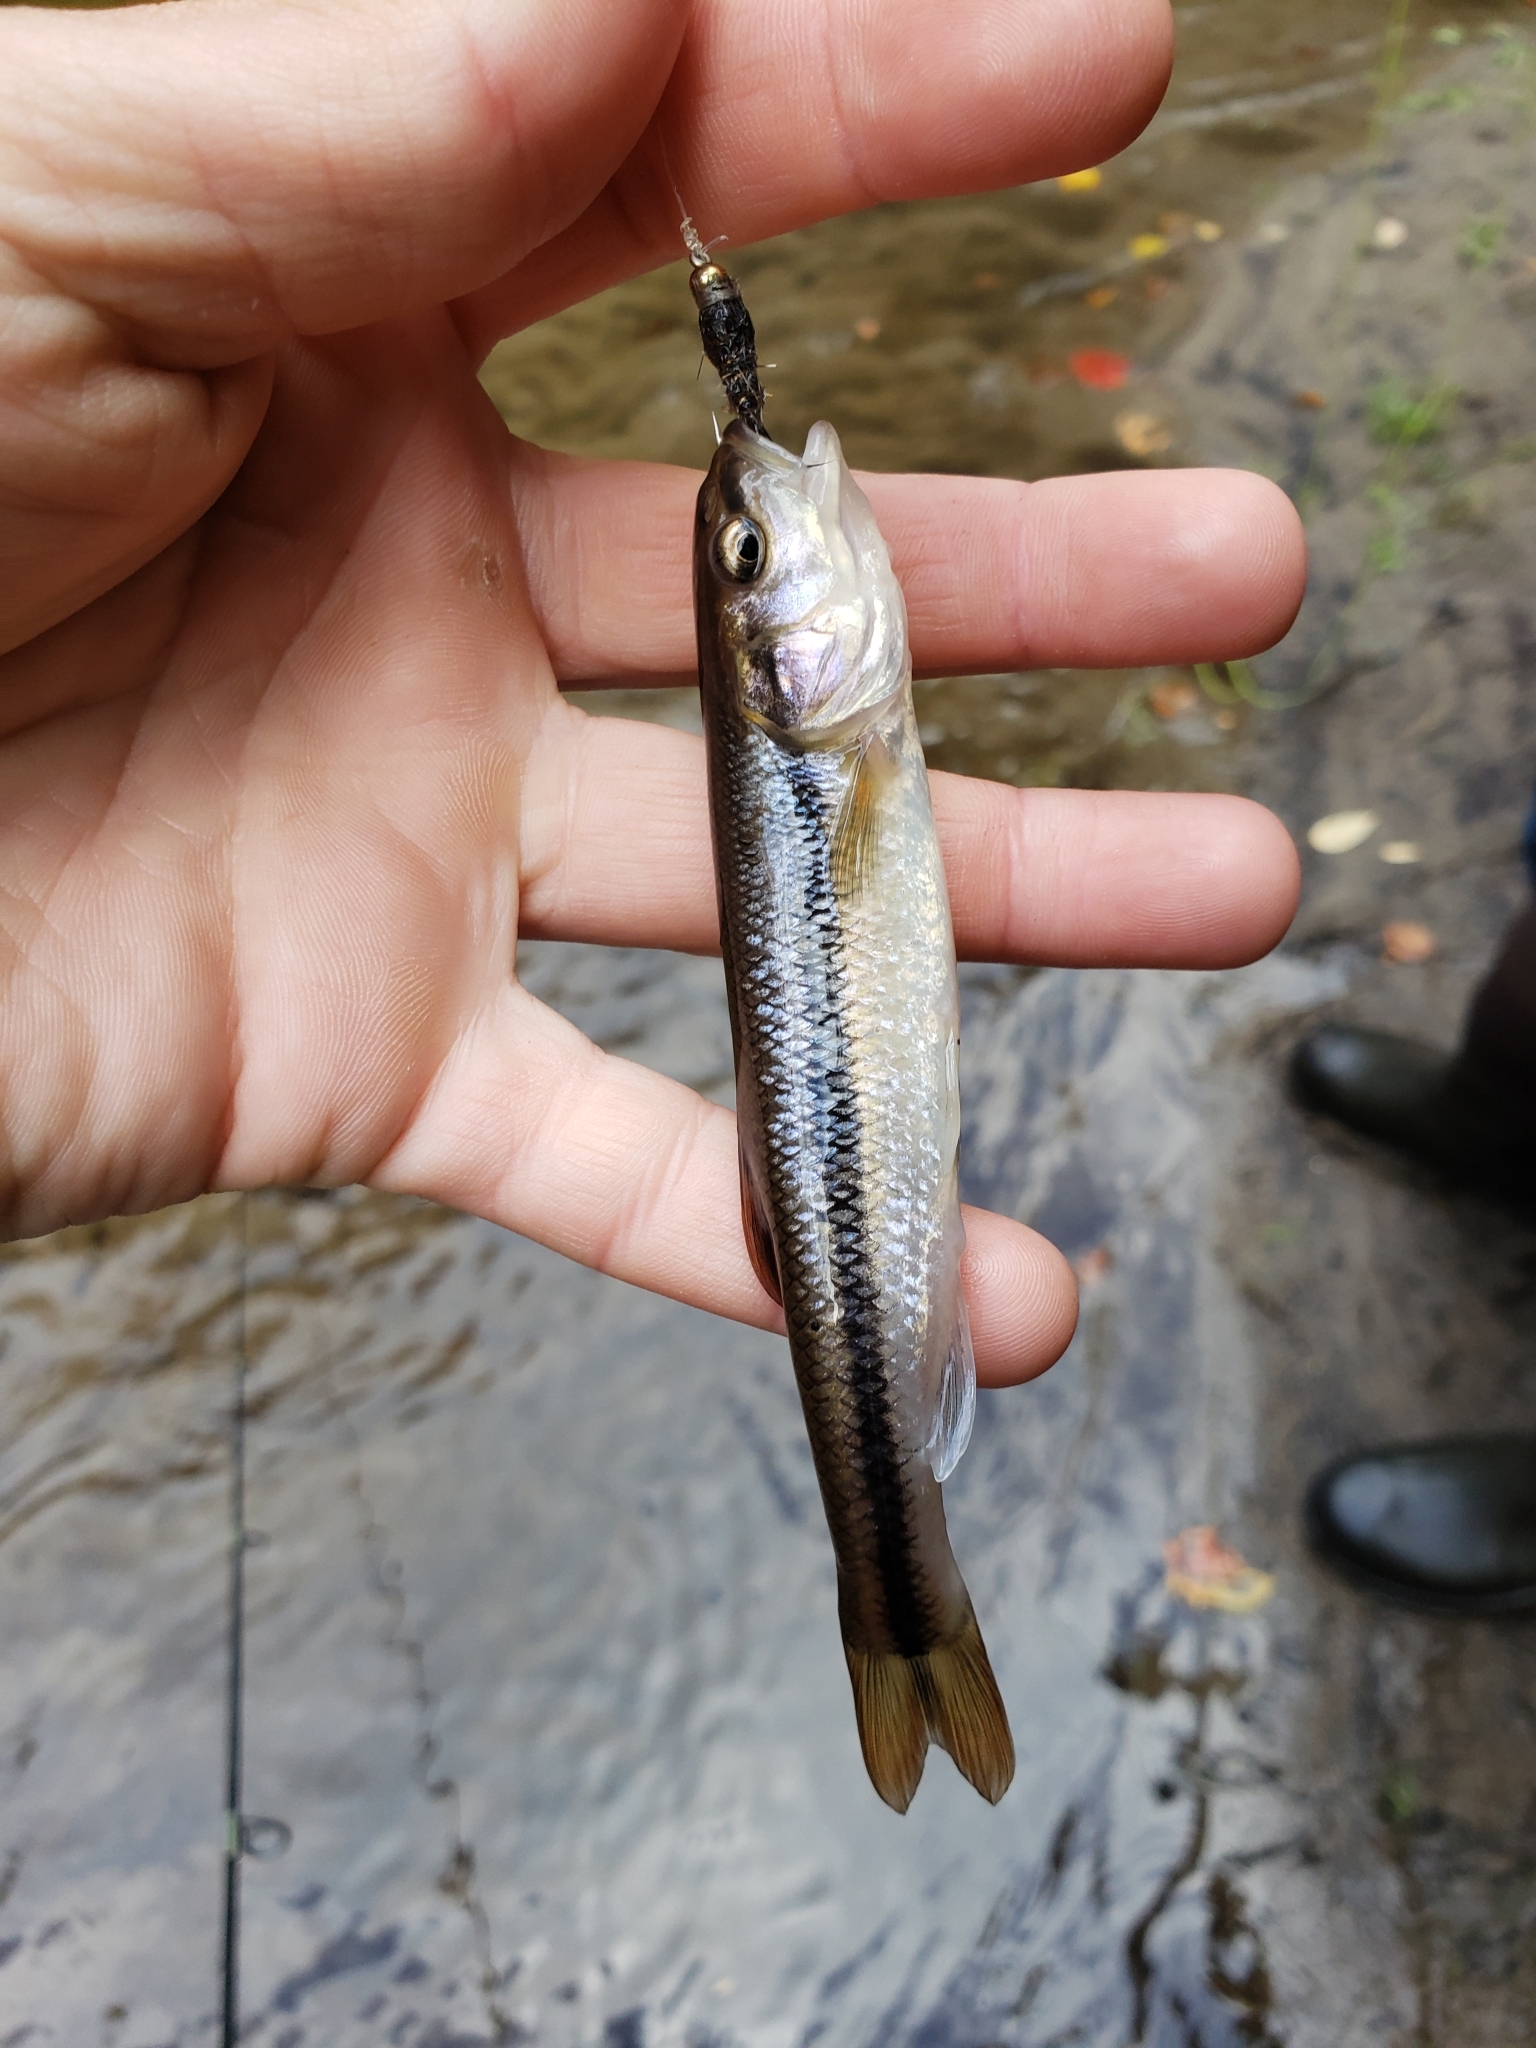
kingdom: Animalia
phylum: Chordata
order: Cypriniformes
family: Cyprinidae
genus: Semotilus
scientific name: Semotilus atromaculatus
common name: Creek chub
